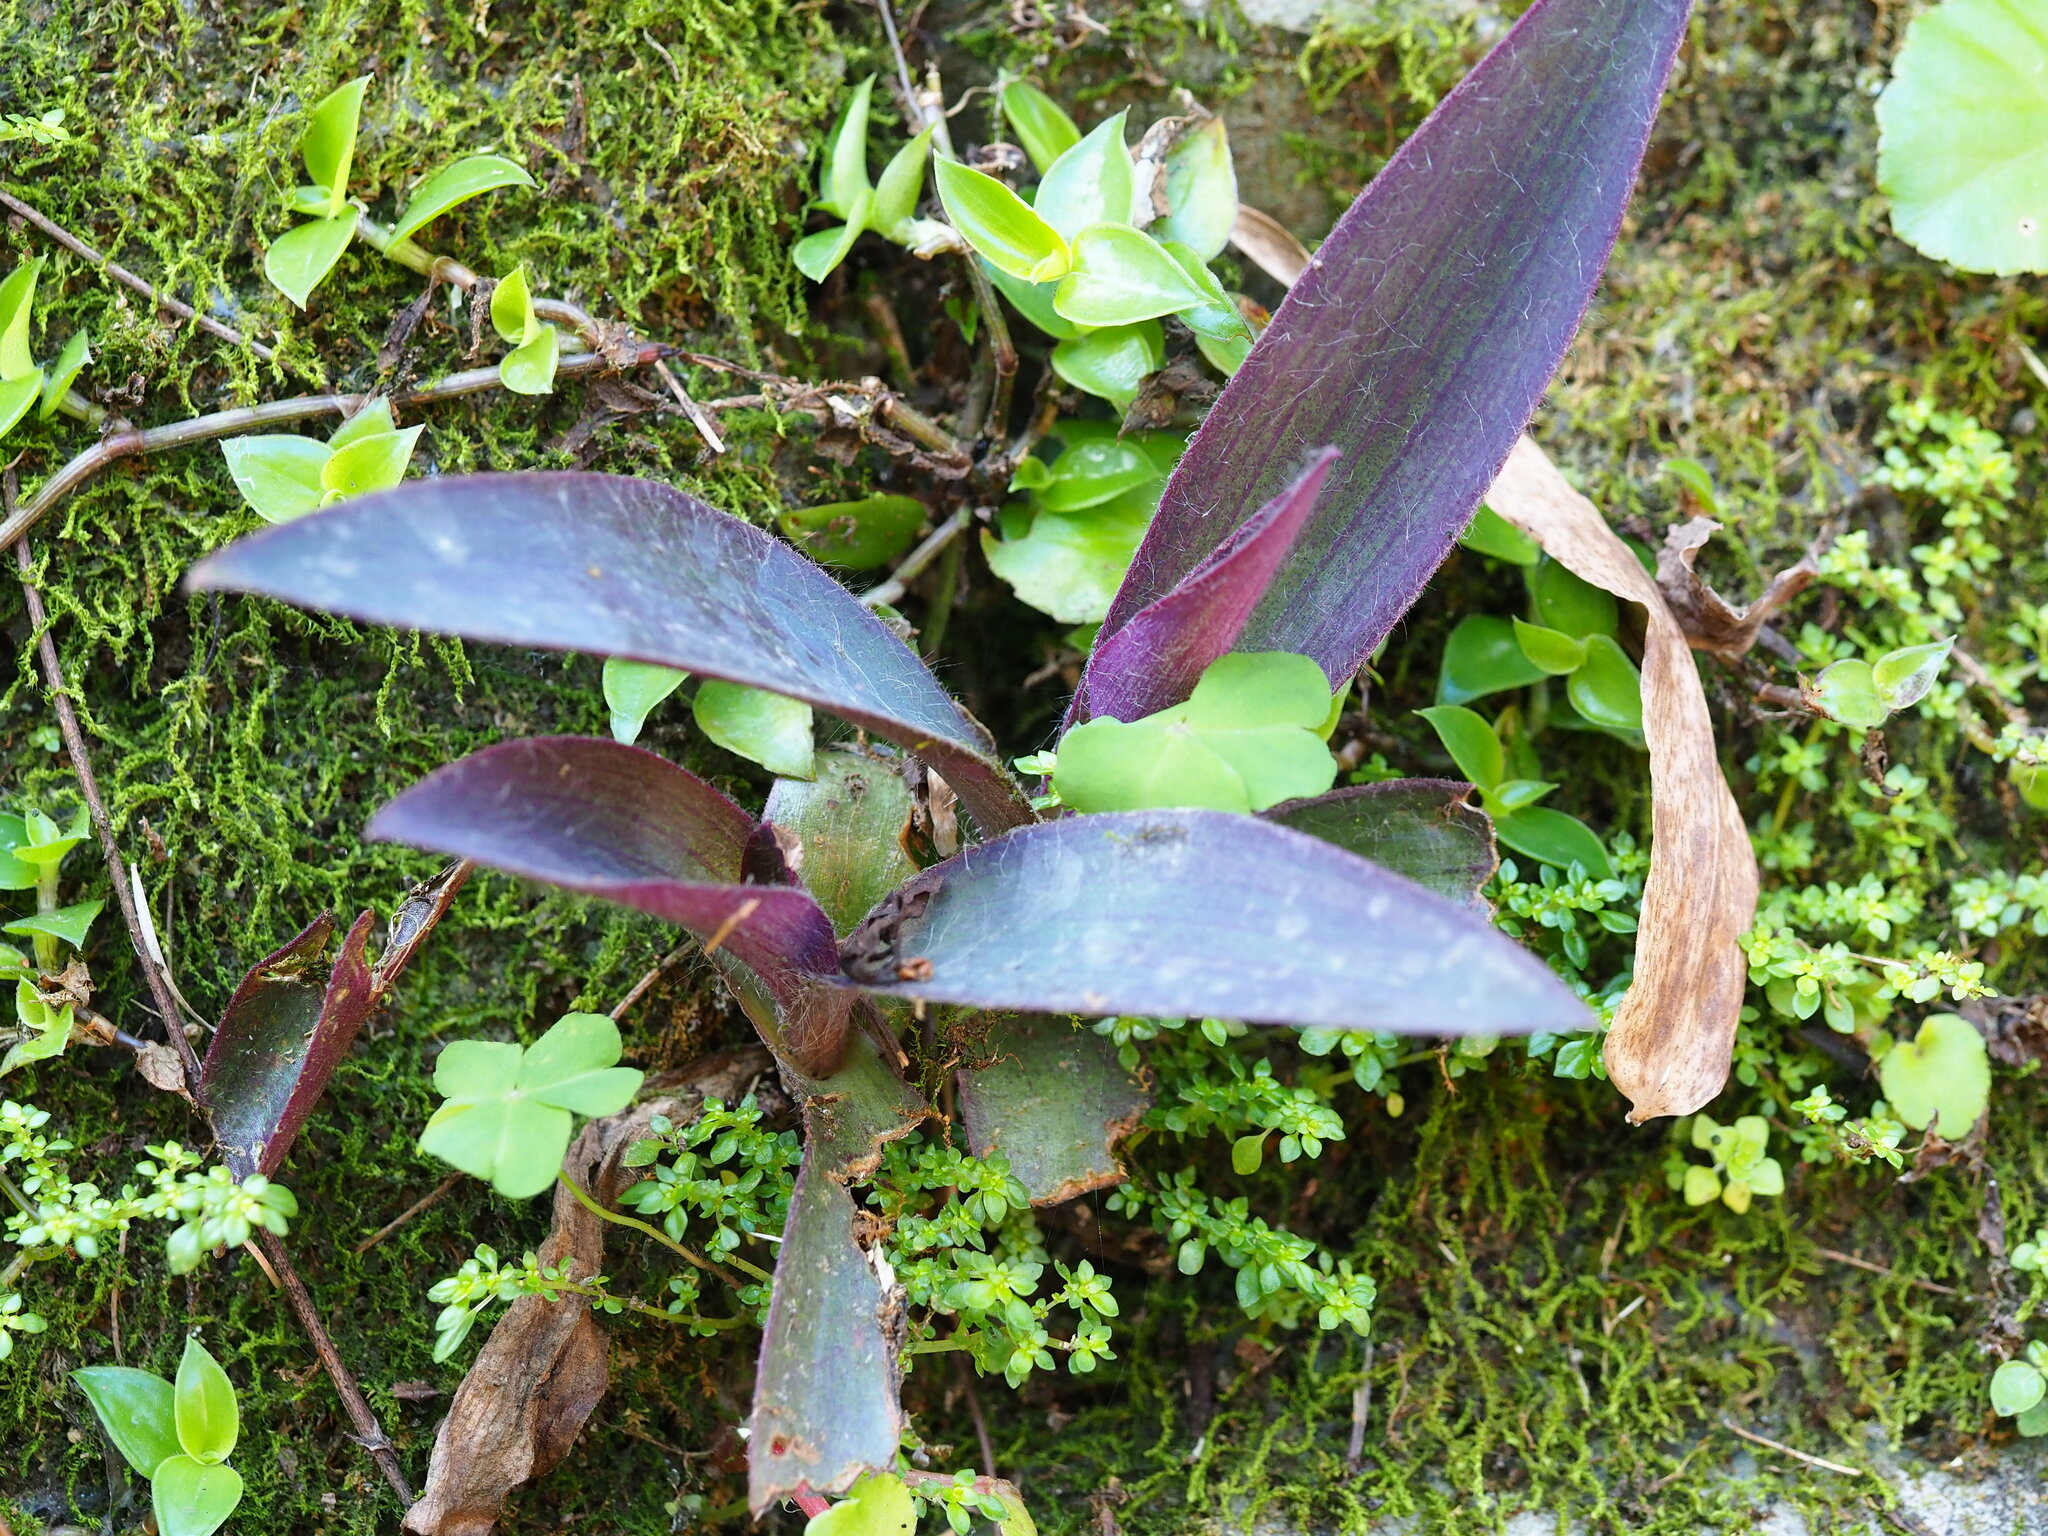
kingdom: Plantae
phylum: Tracheophyta
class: Liliopsida
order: Commelinales
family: Commelinaceae
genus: Tradescantia
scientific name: Tradescantia pallida
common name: Purpleheart
